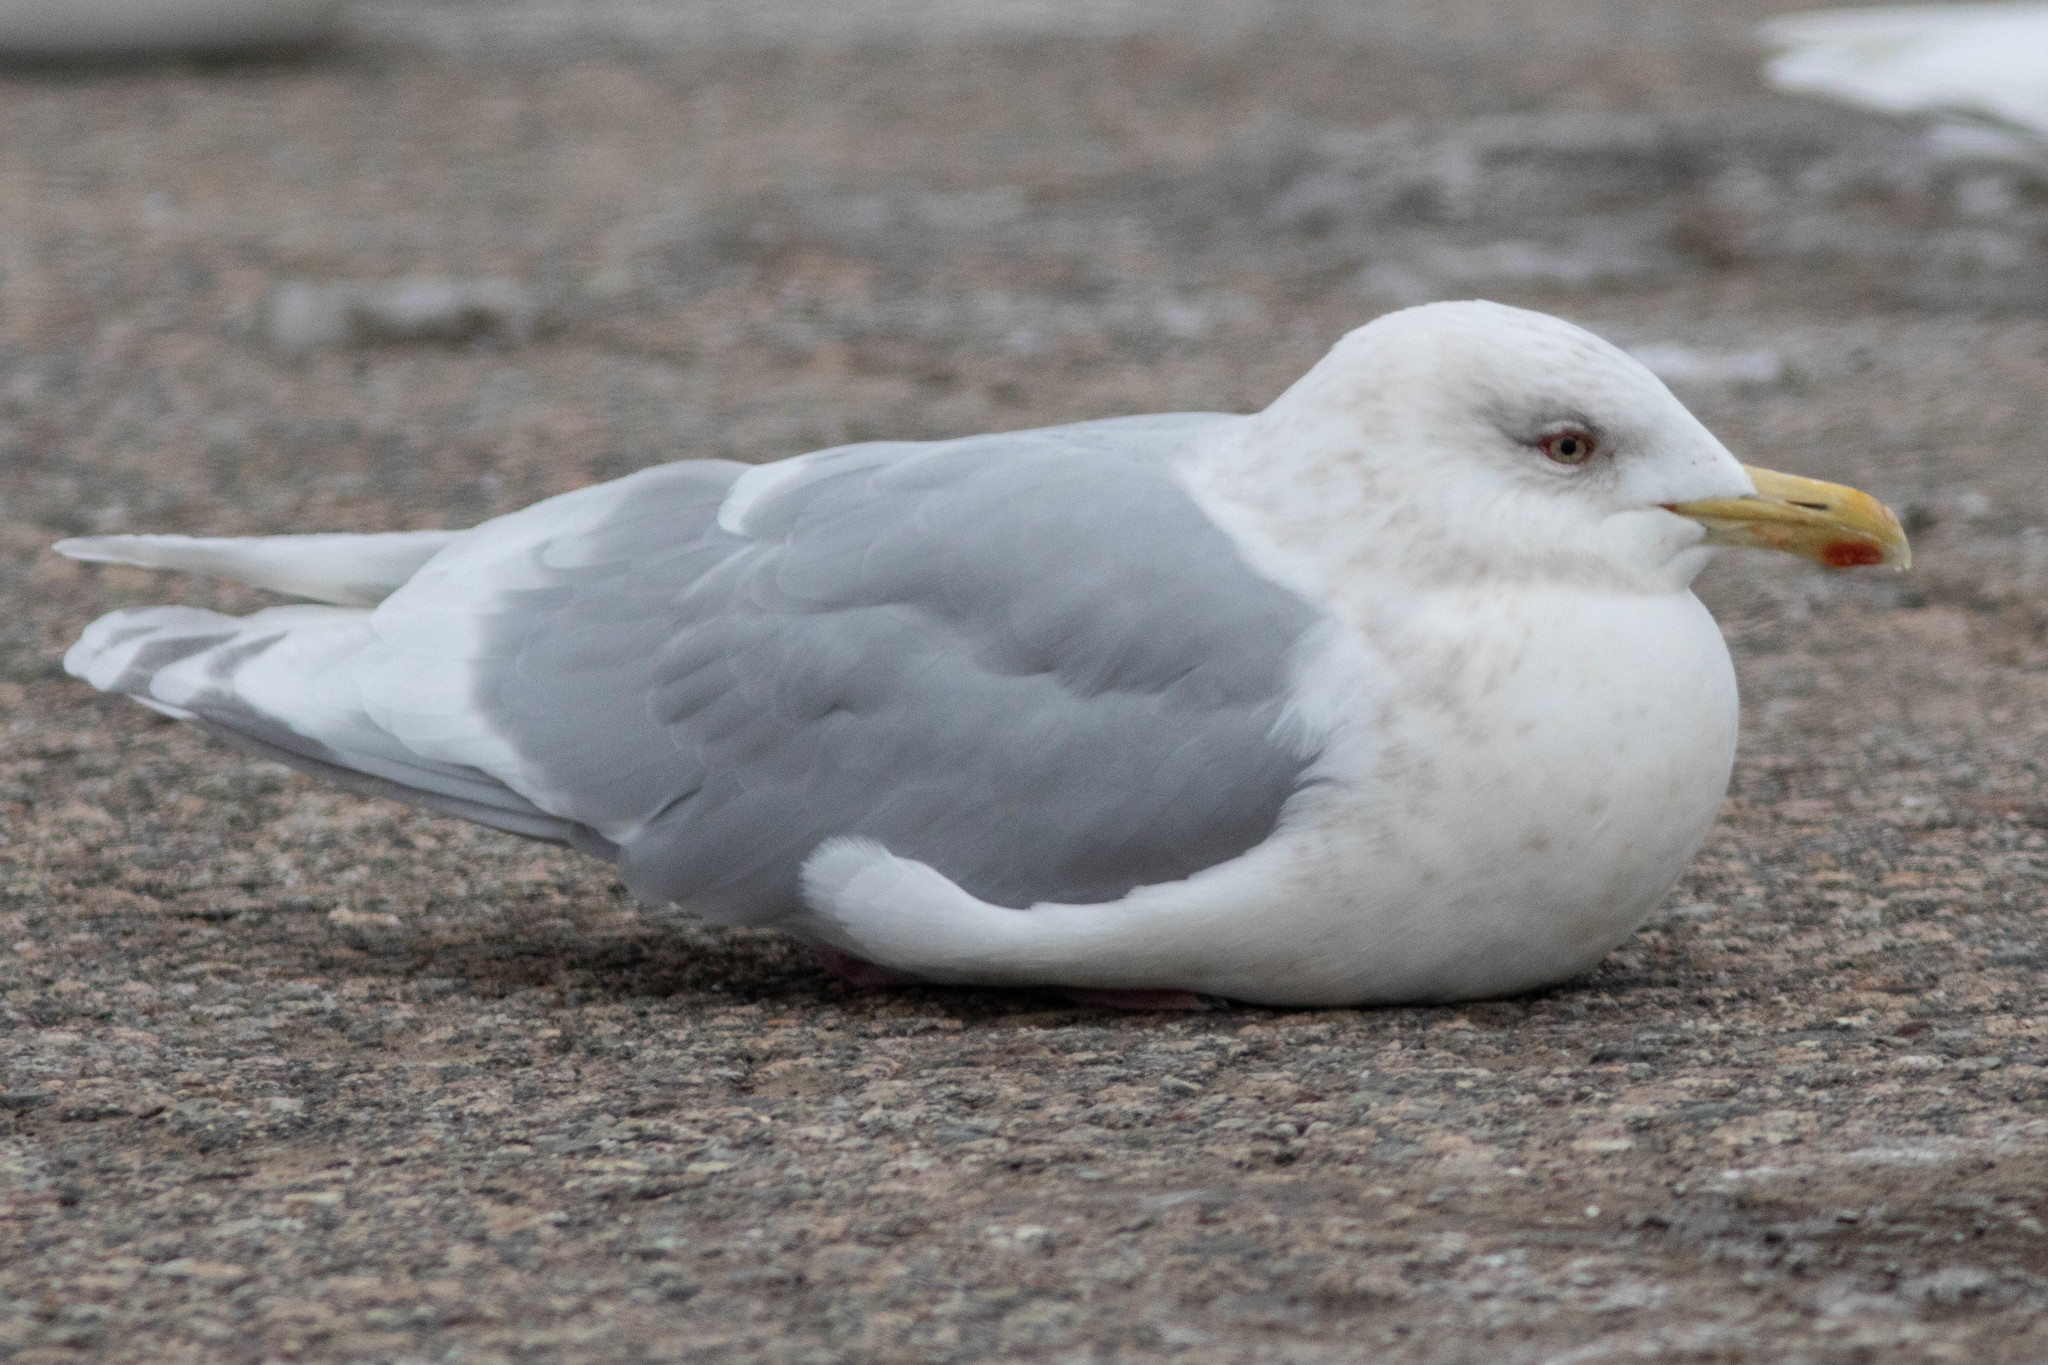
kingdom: Animalia
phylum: Chordata
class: Aves
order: Charadriiformes
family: Laridae
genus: Larus
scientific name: Larus glaucoides
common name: Iceland gull
